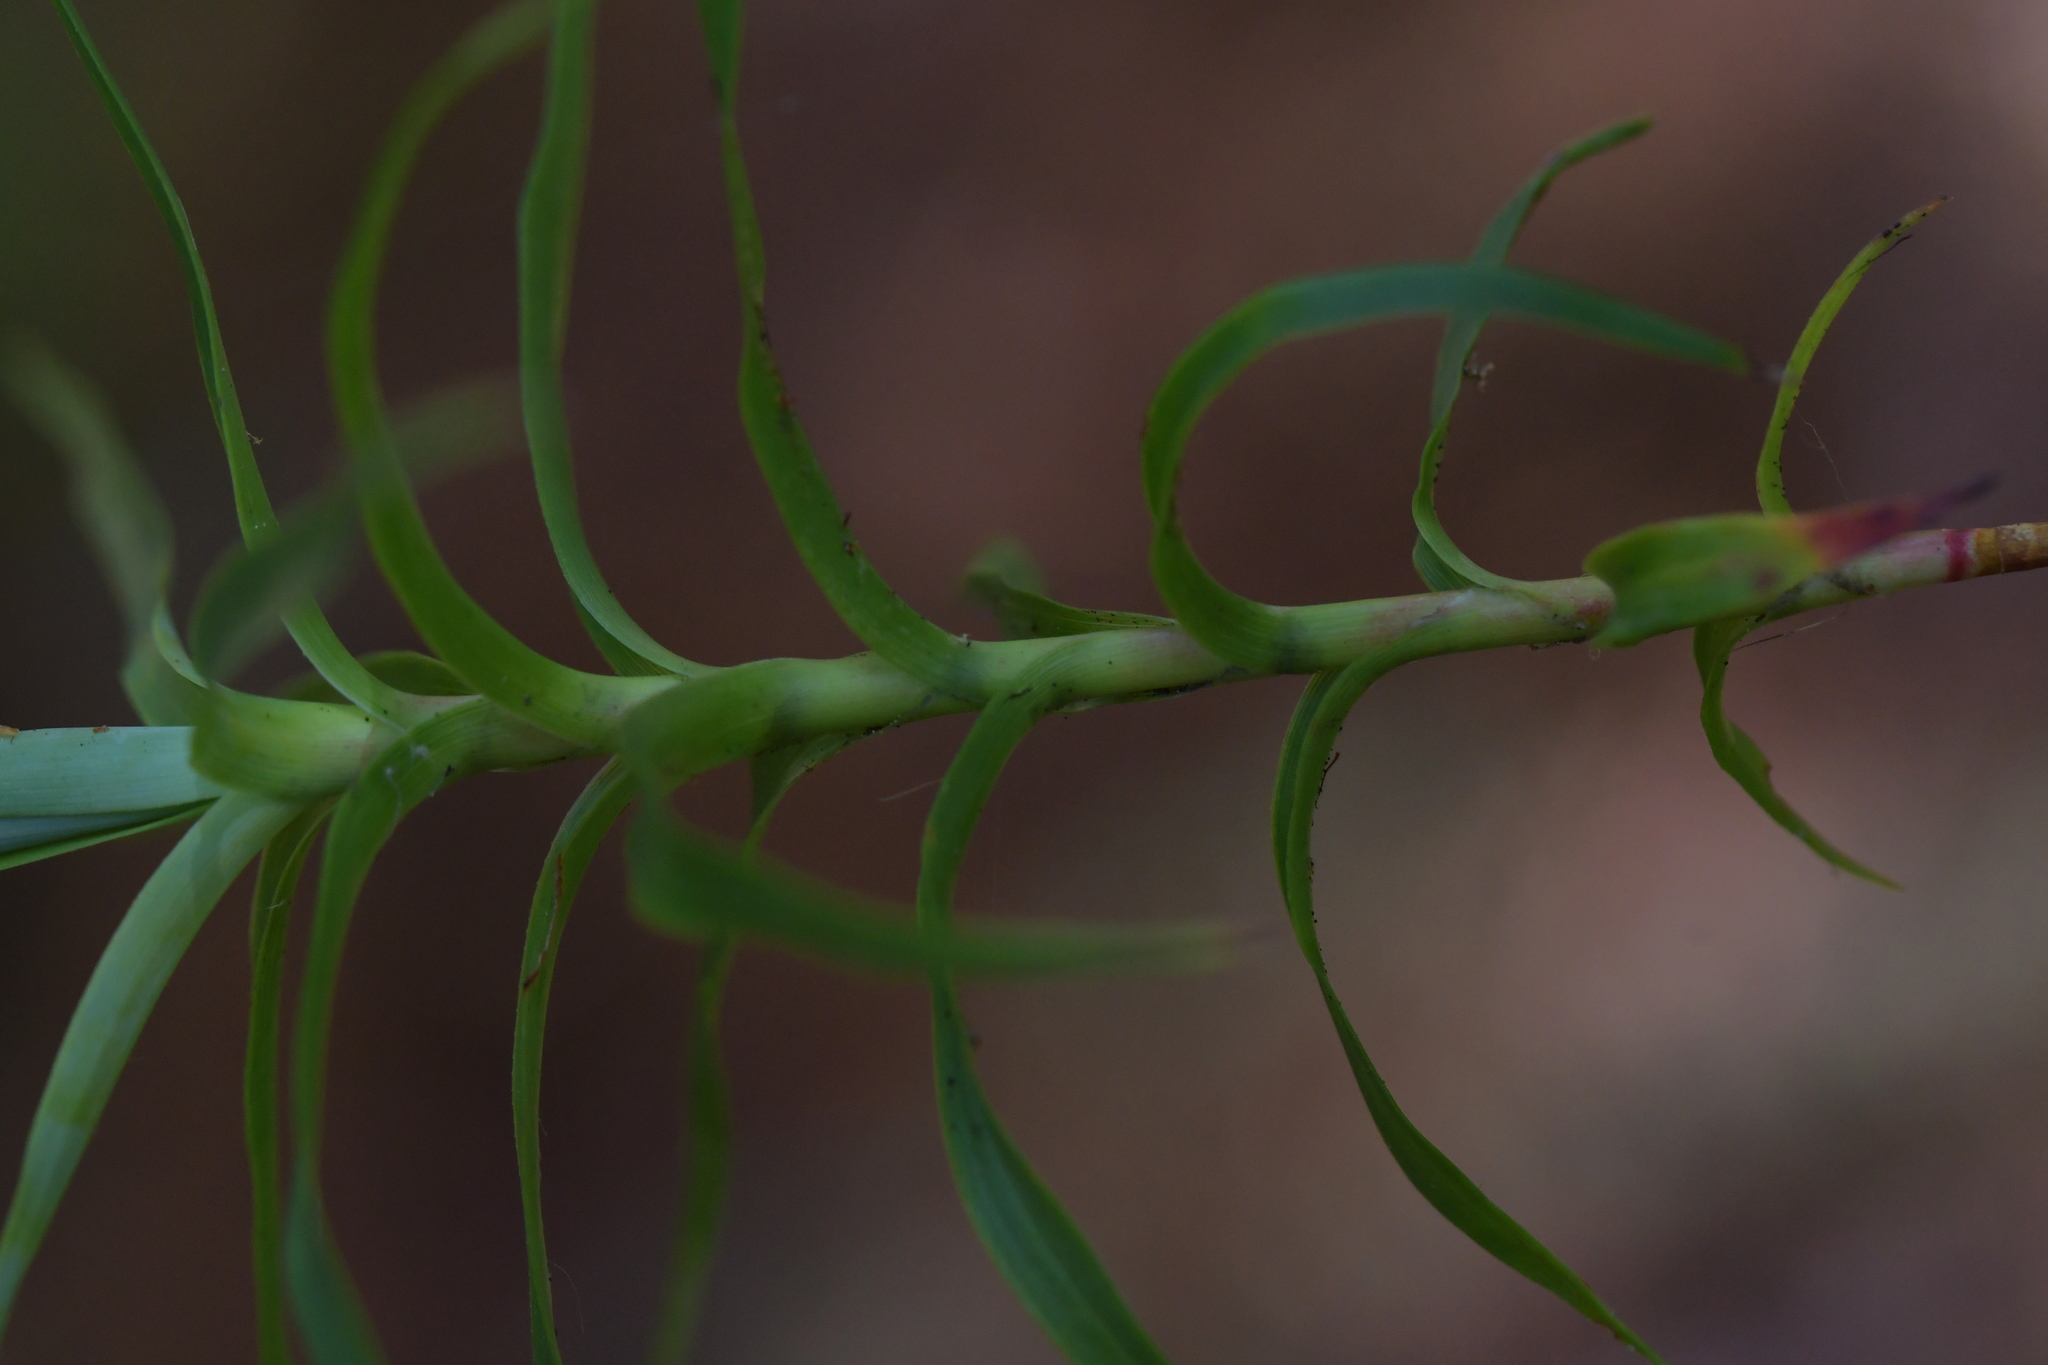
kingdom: Plantae
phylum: Tracheophyta
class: Magnoliopsida
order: Ericales
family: Ericaceae
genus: Dracophyllum
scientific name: Dracophyllum strictum
